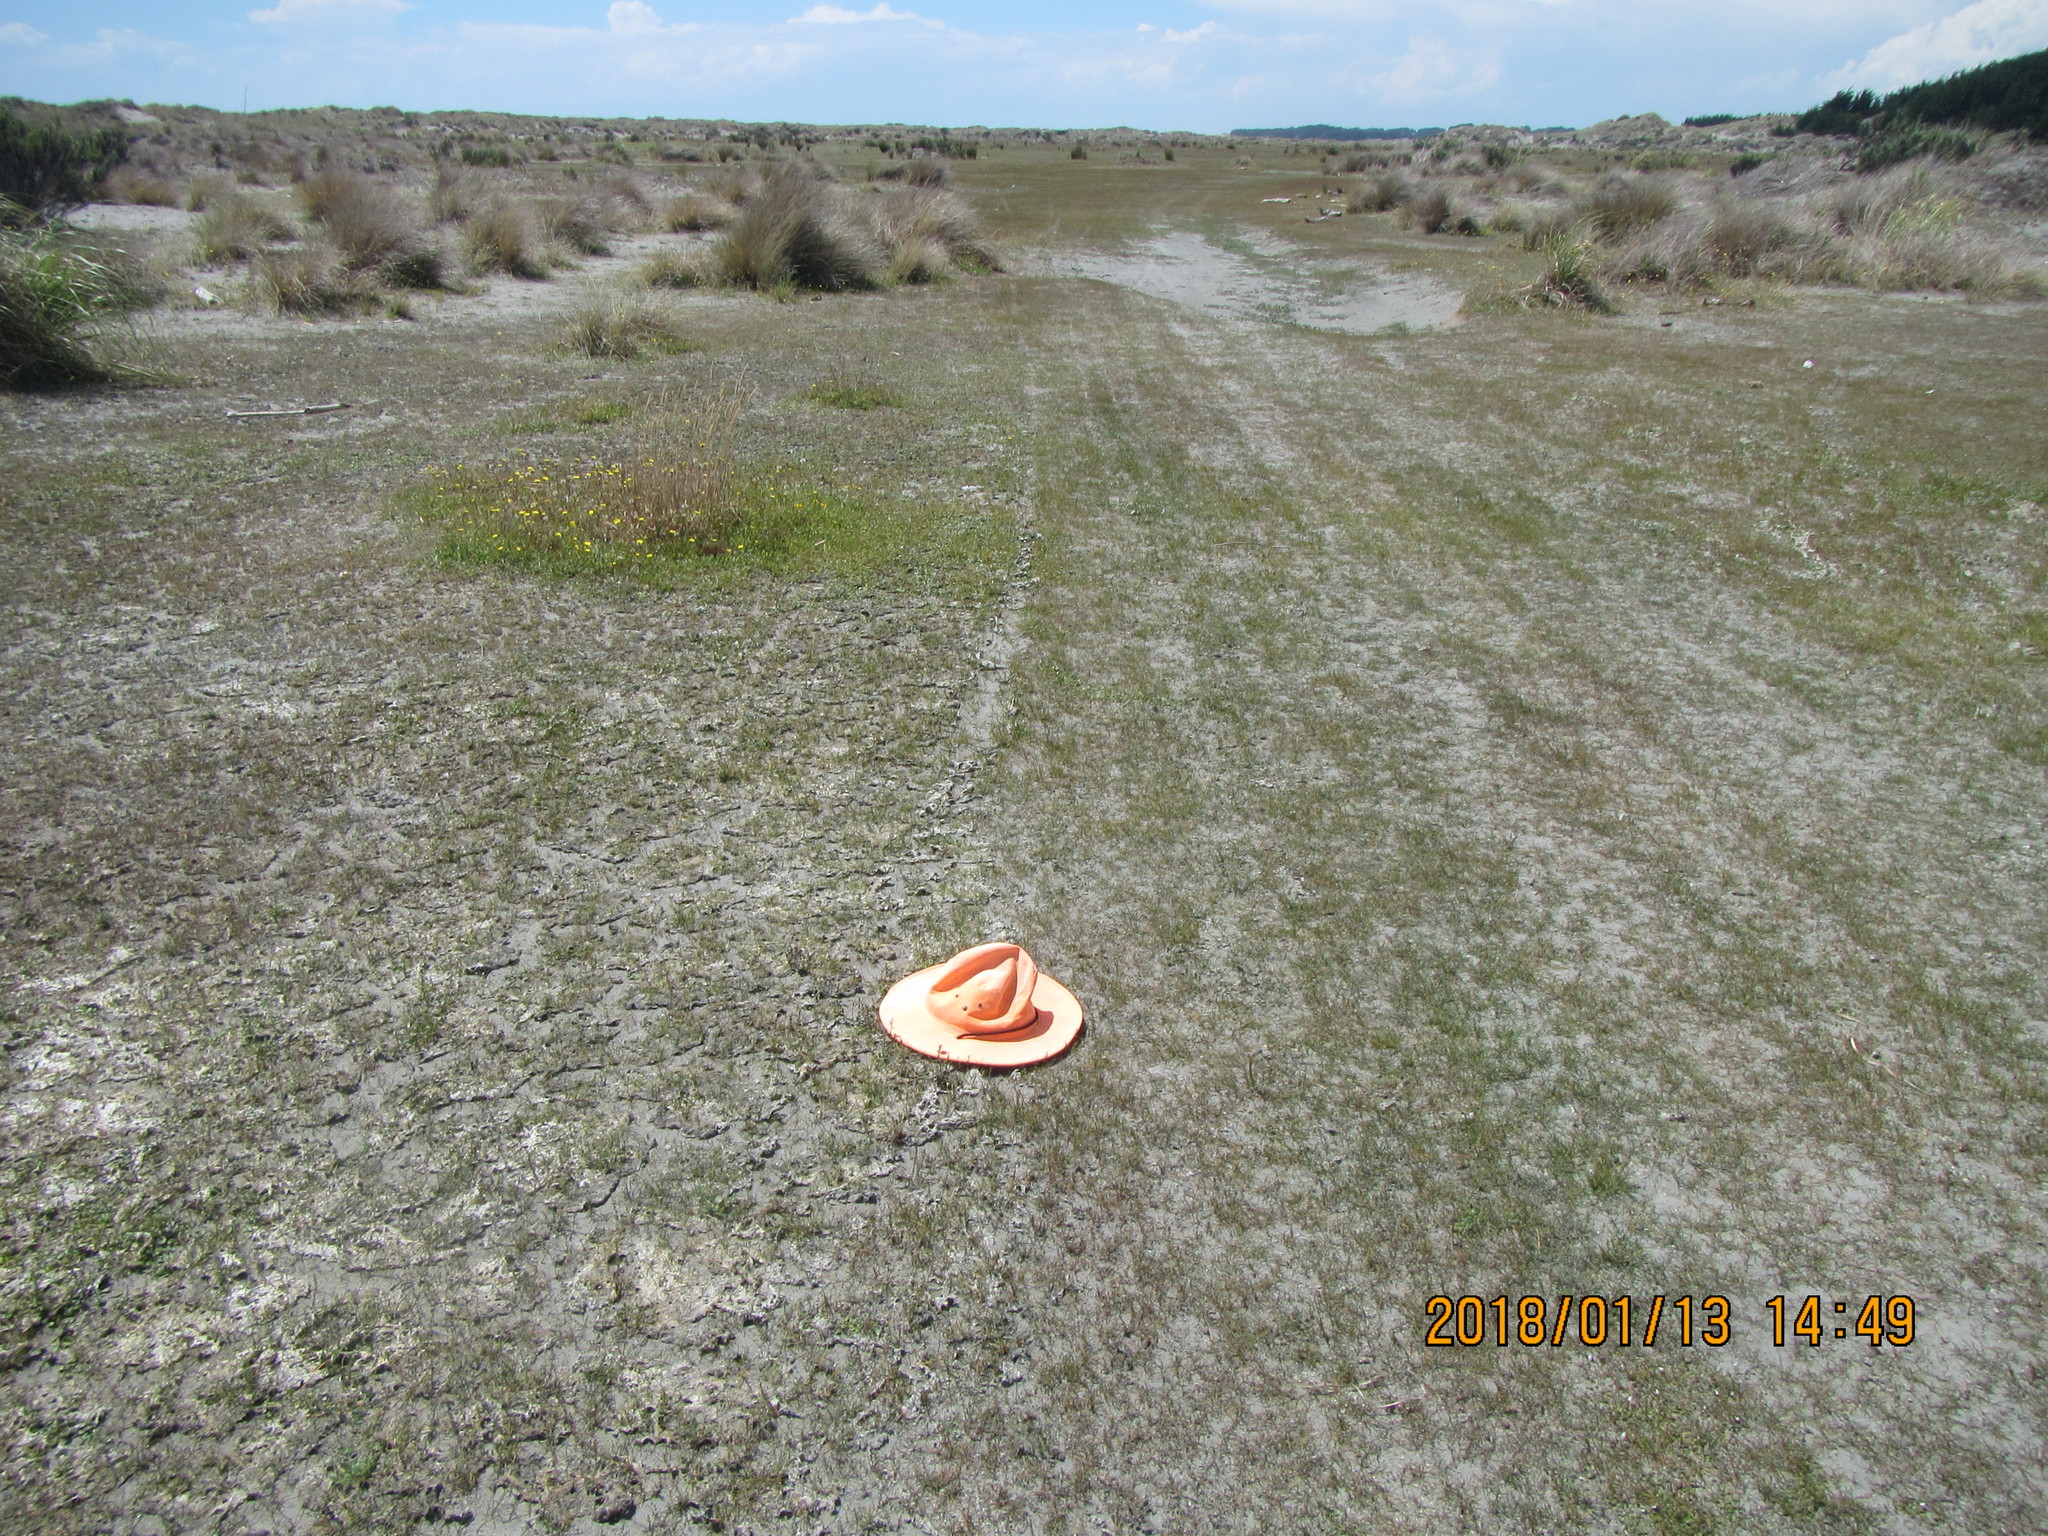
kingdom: Plantae
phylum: Tracheophyta
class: Magnoliopsida
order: Asterales
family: Goodeniaceae
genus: Goodenia
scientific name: Goodenia radicans
